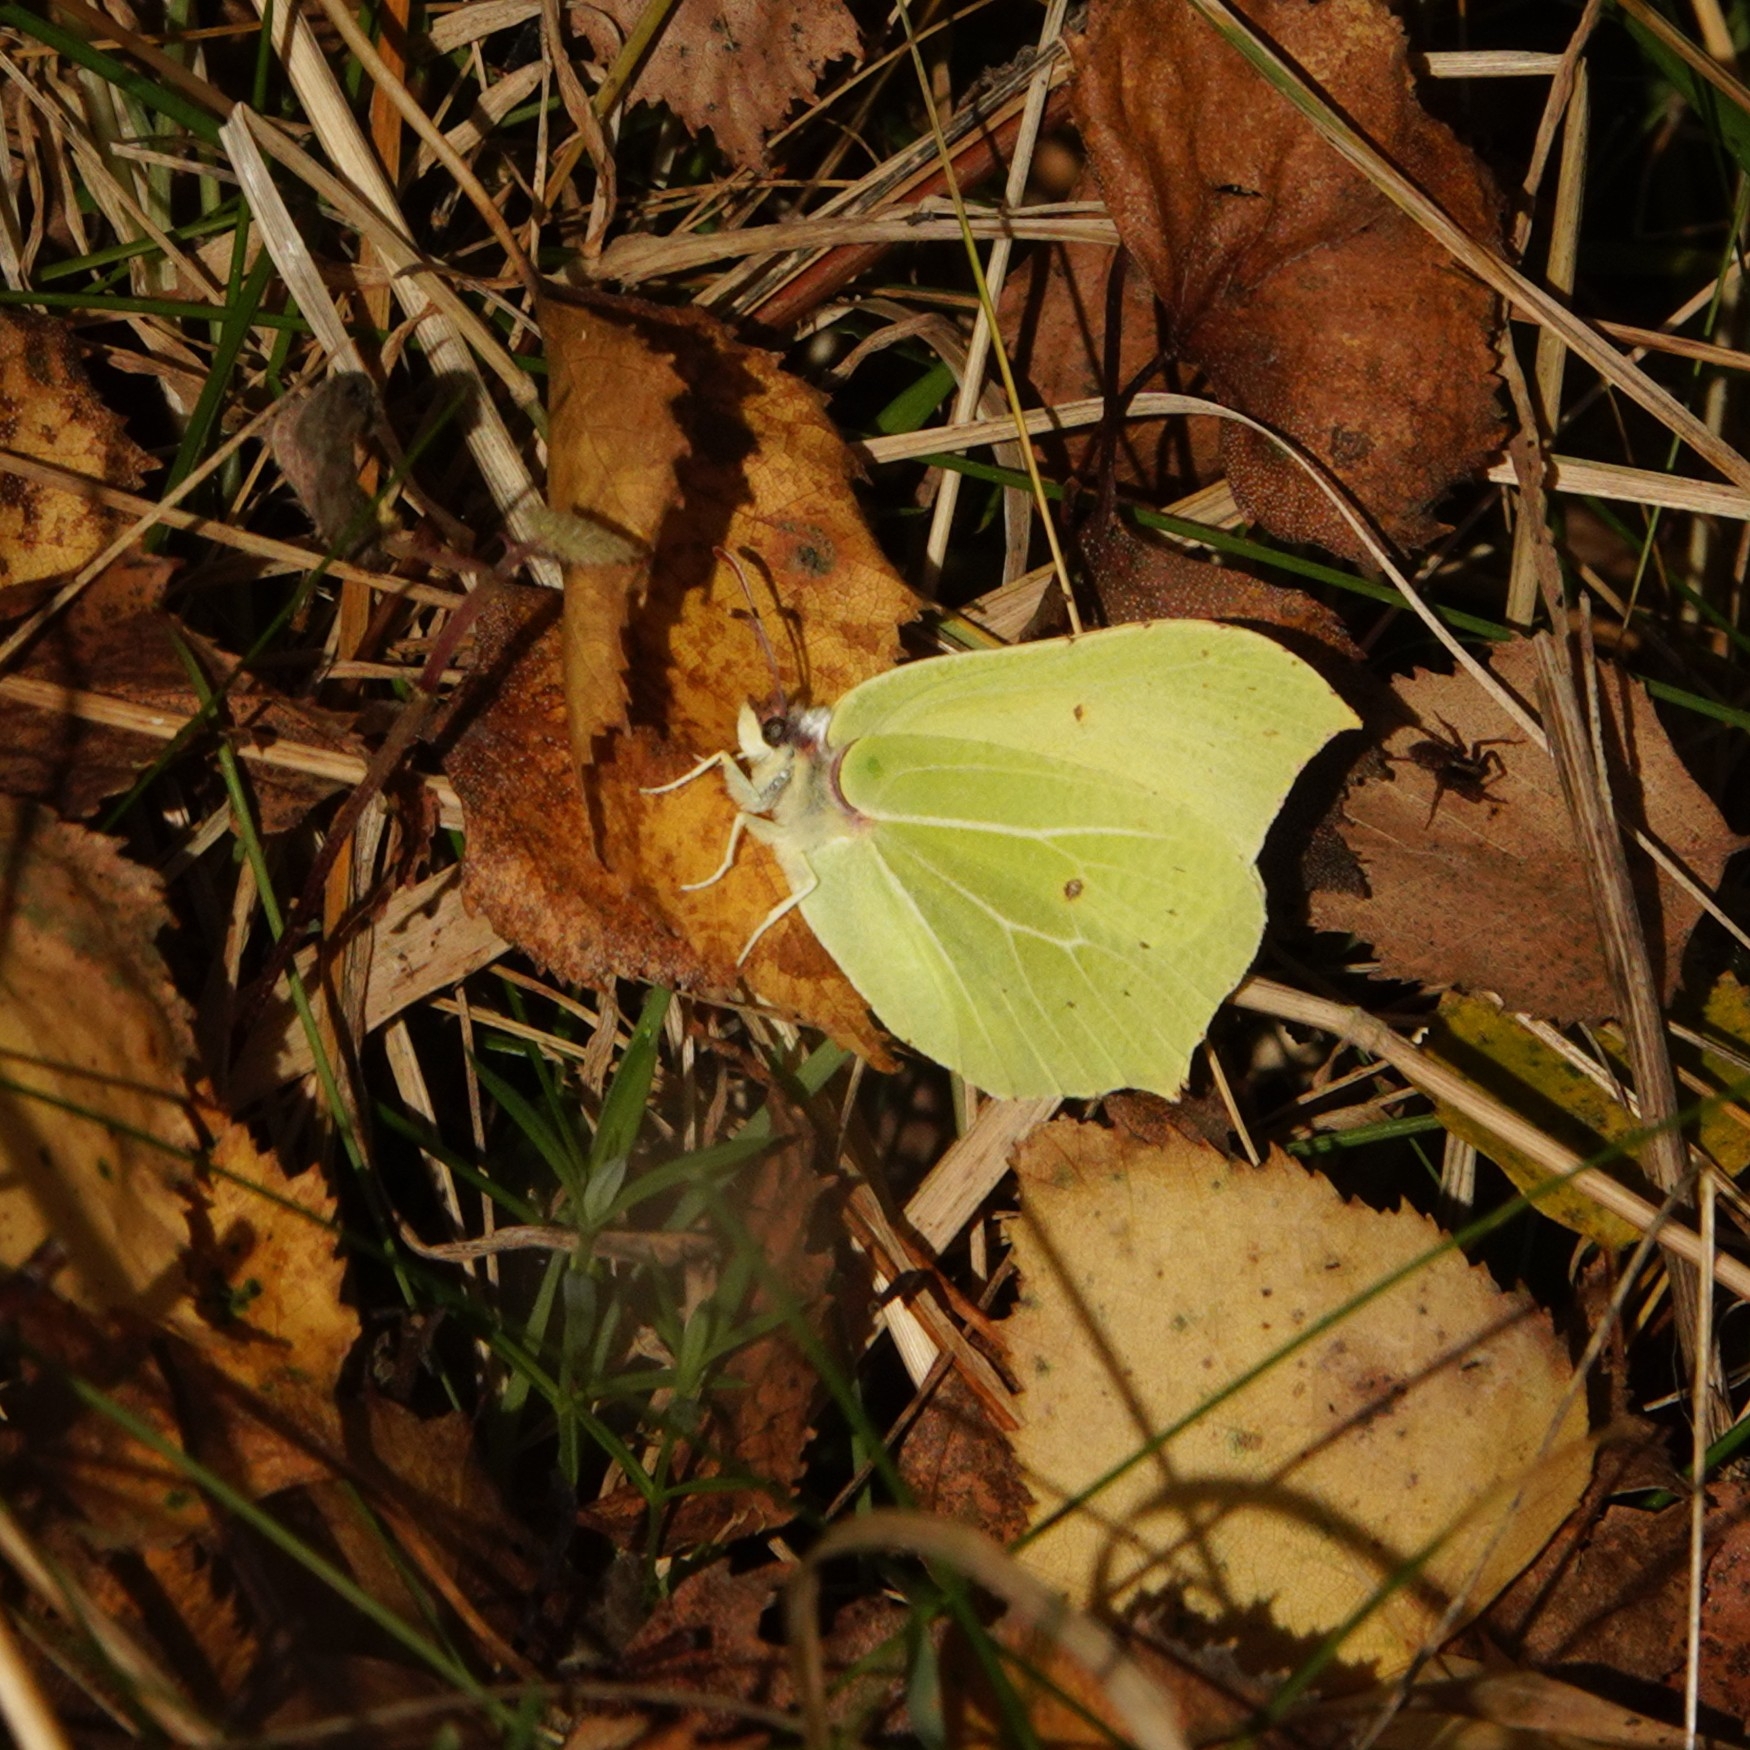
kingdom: Animalia
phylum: Arthropoda
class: Insecta
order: Lepidoptera
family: Pieridae
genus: Gonepteryx
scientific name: Gonepteryx rhamni
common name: Brimstone
